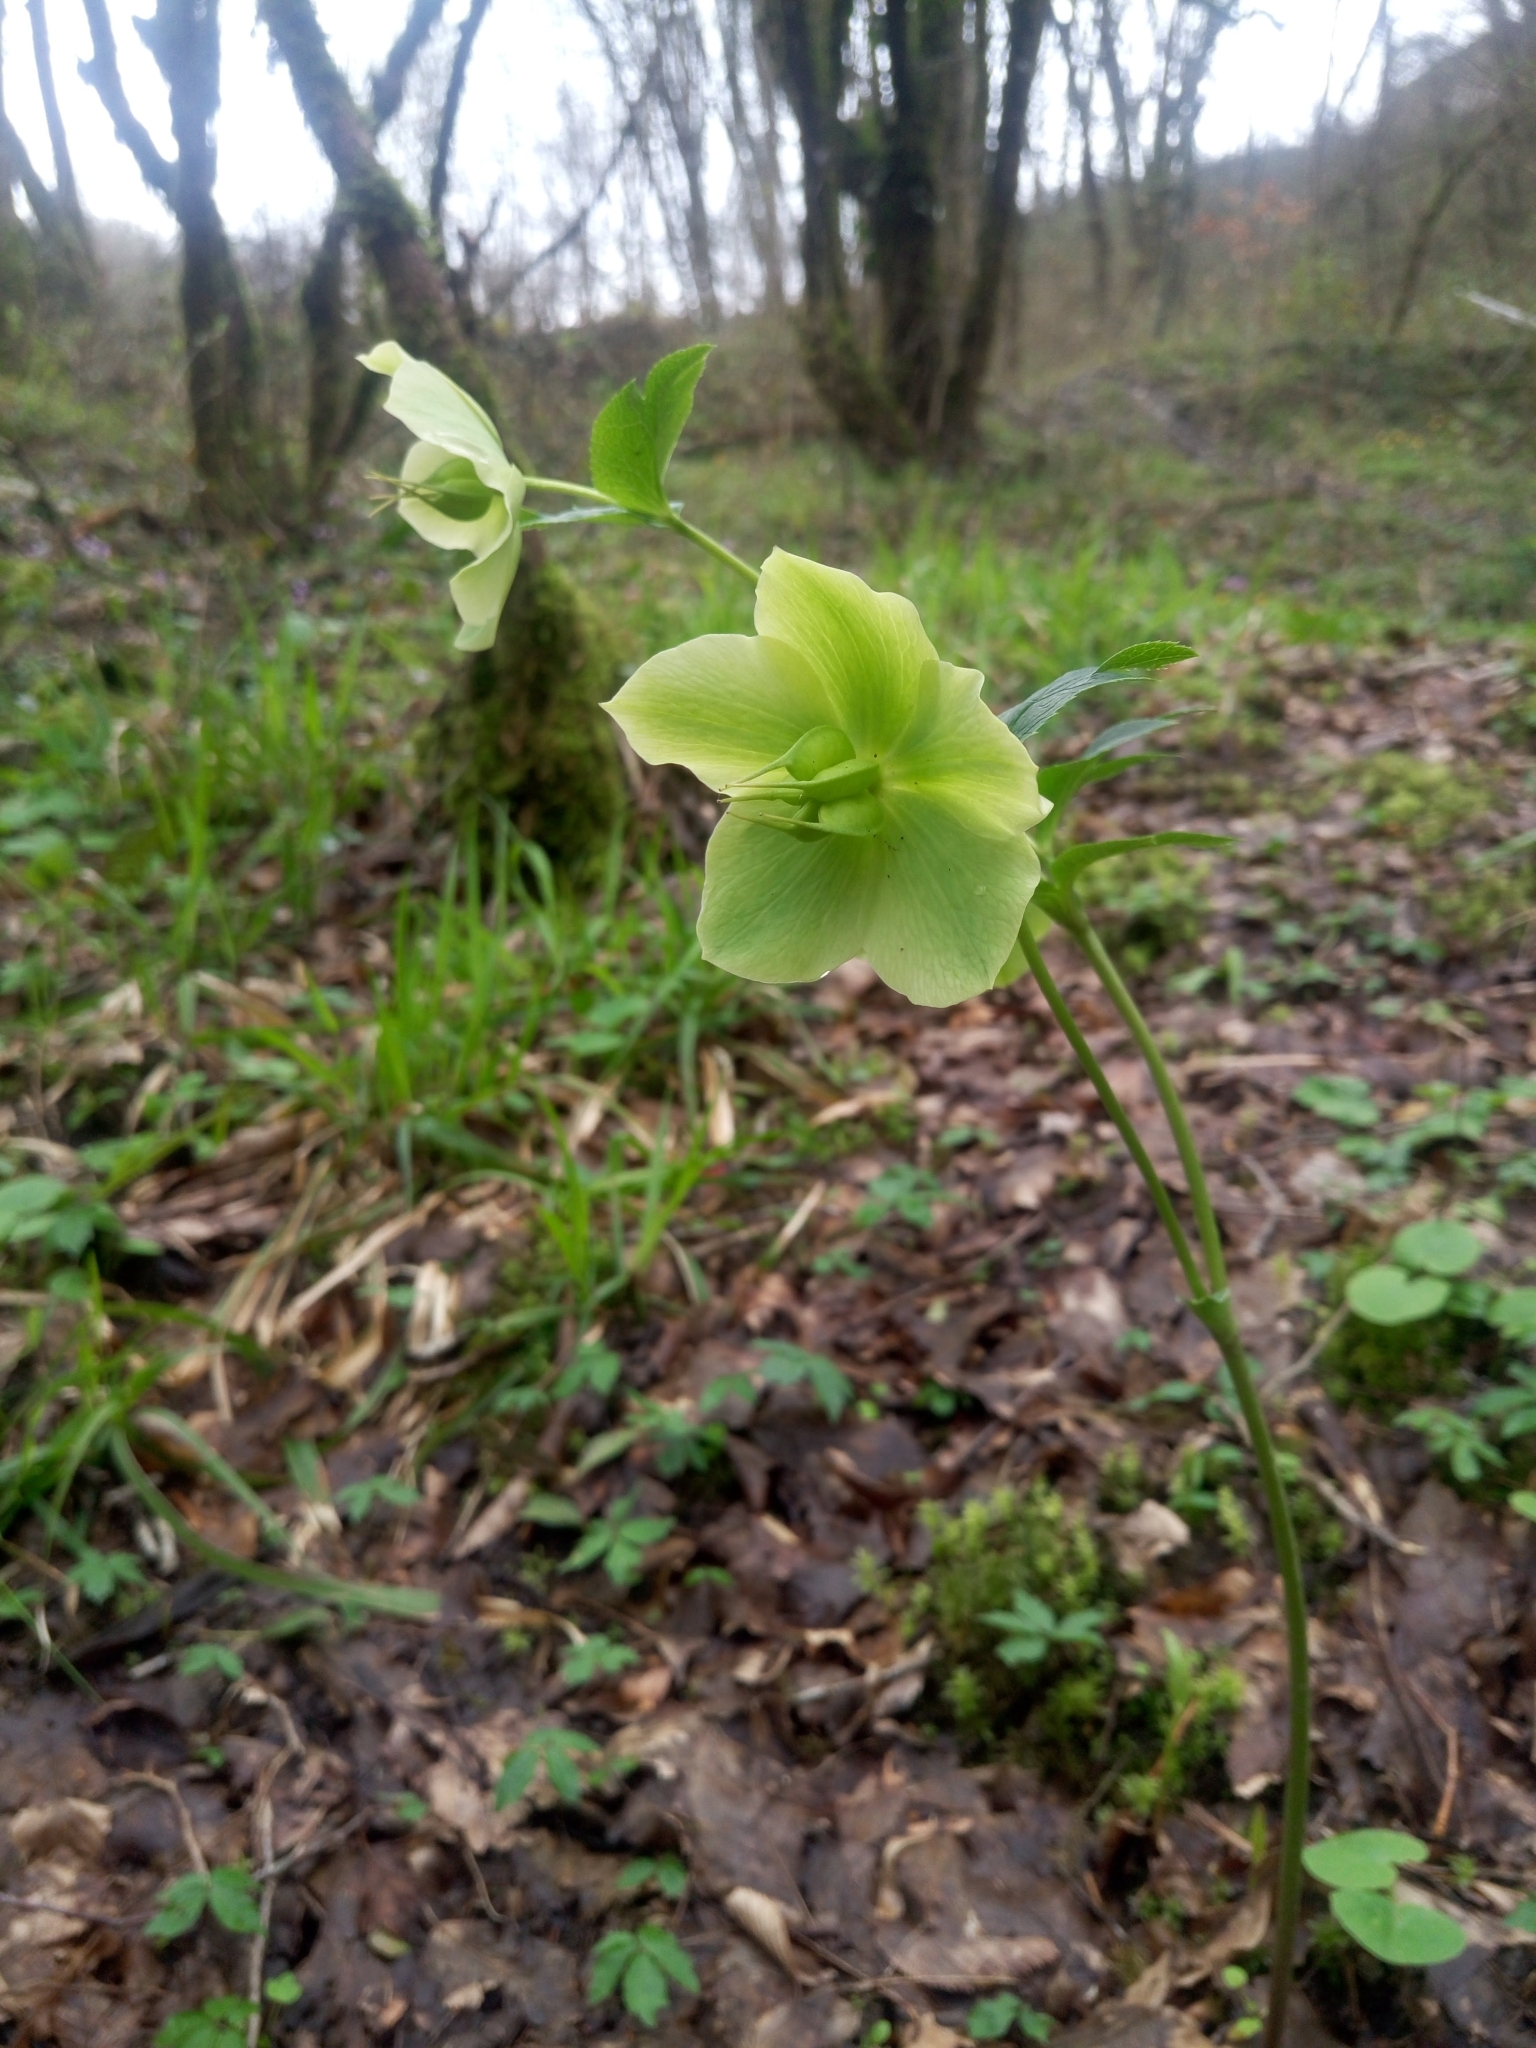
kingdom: Plantae
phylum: Tracheophyta
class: Magnoliopsida
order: Ranunculales
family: Ranunculaceae
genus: Helleborus
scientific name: Helleborus orientalis
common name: Lenten-rose
